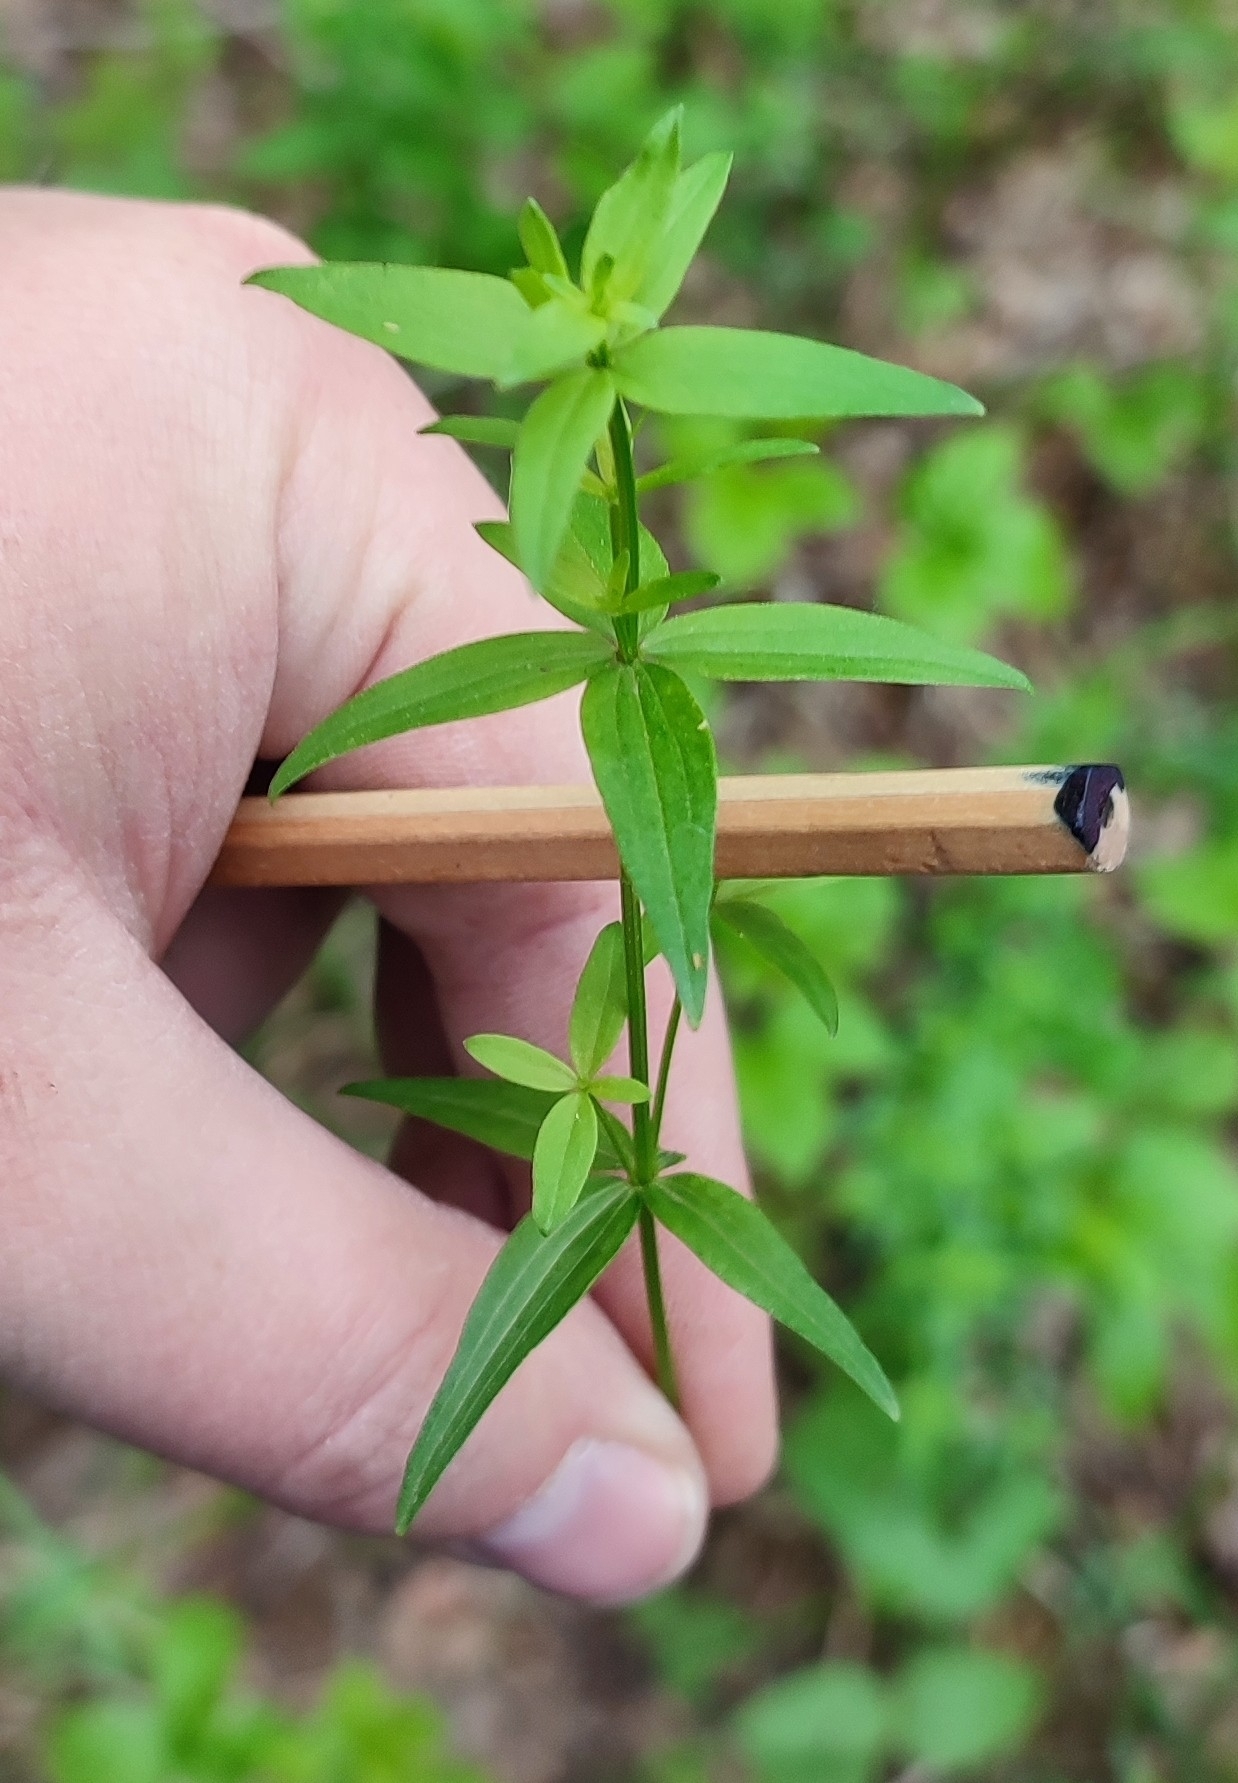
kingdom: Plantae
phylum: Tracheophyta
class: Magnoliopsida
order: Gentianales
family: Rubiaceae
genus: Galium
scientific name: Galium boreale
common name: Northern bedstraw
